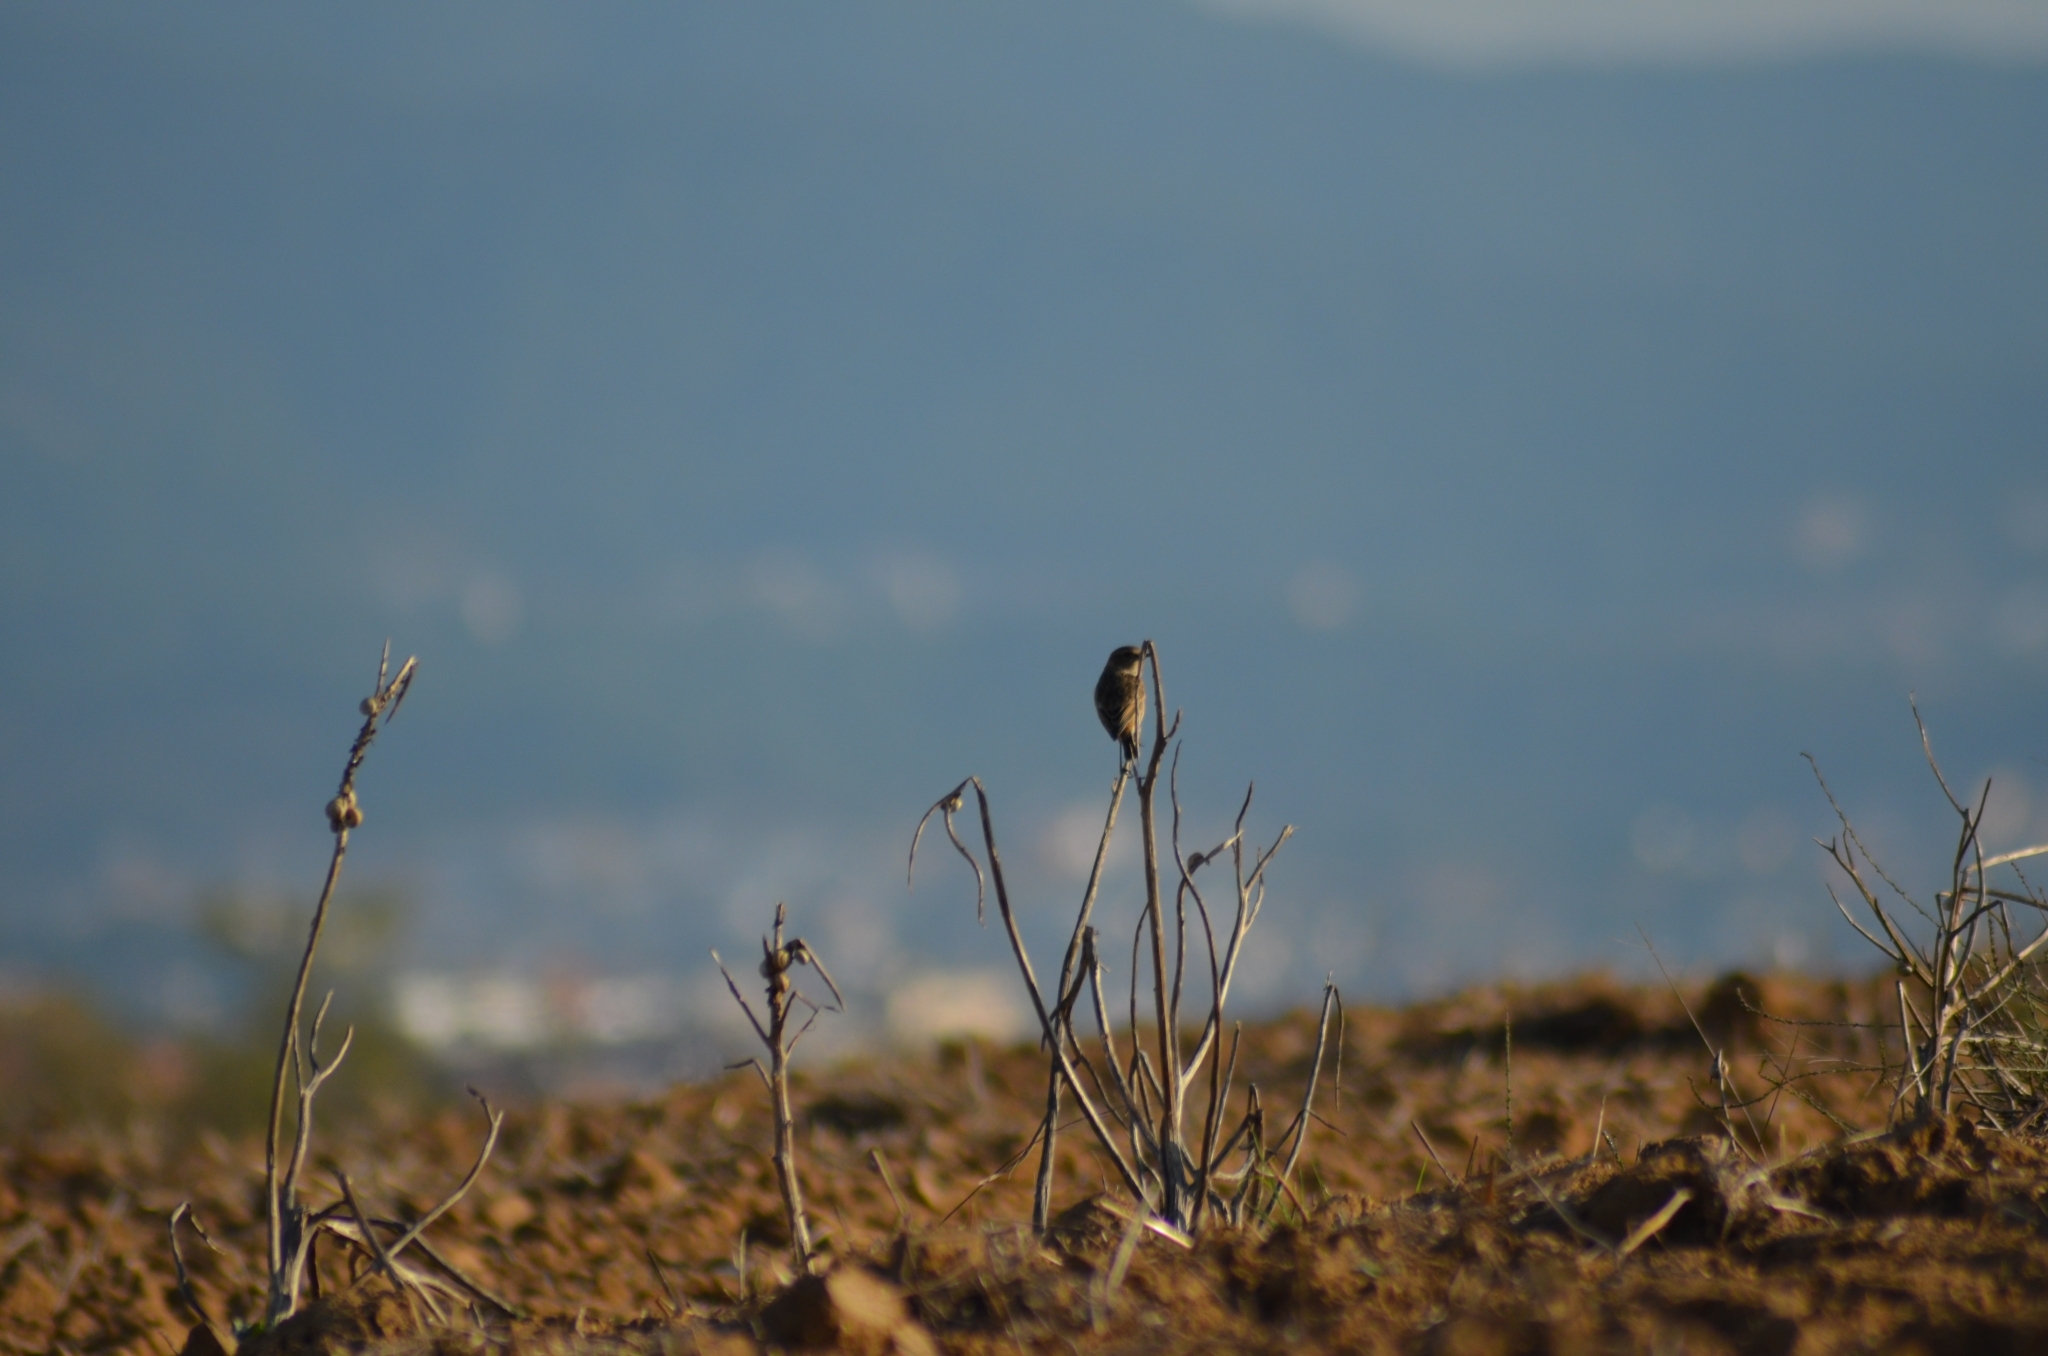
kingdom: Animalia
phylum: Chordata
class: Aves
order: Passeriformes
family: Muscicapidae
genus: Saxicola
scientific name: Saxicola rubicola
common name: European stonechat
